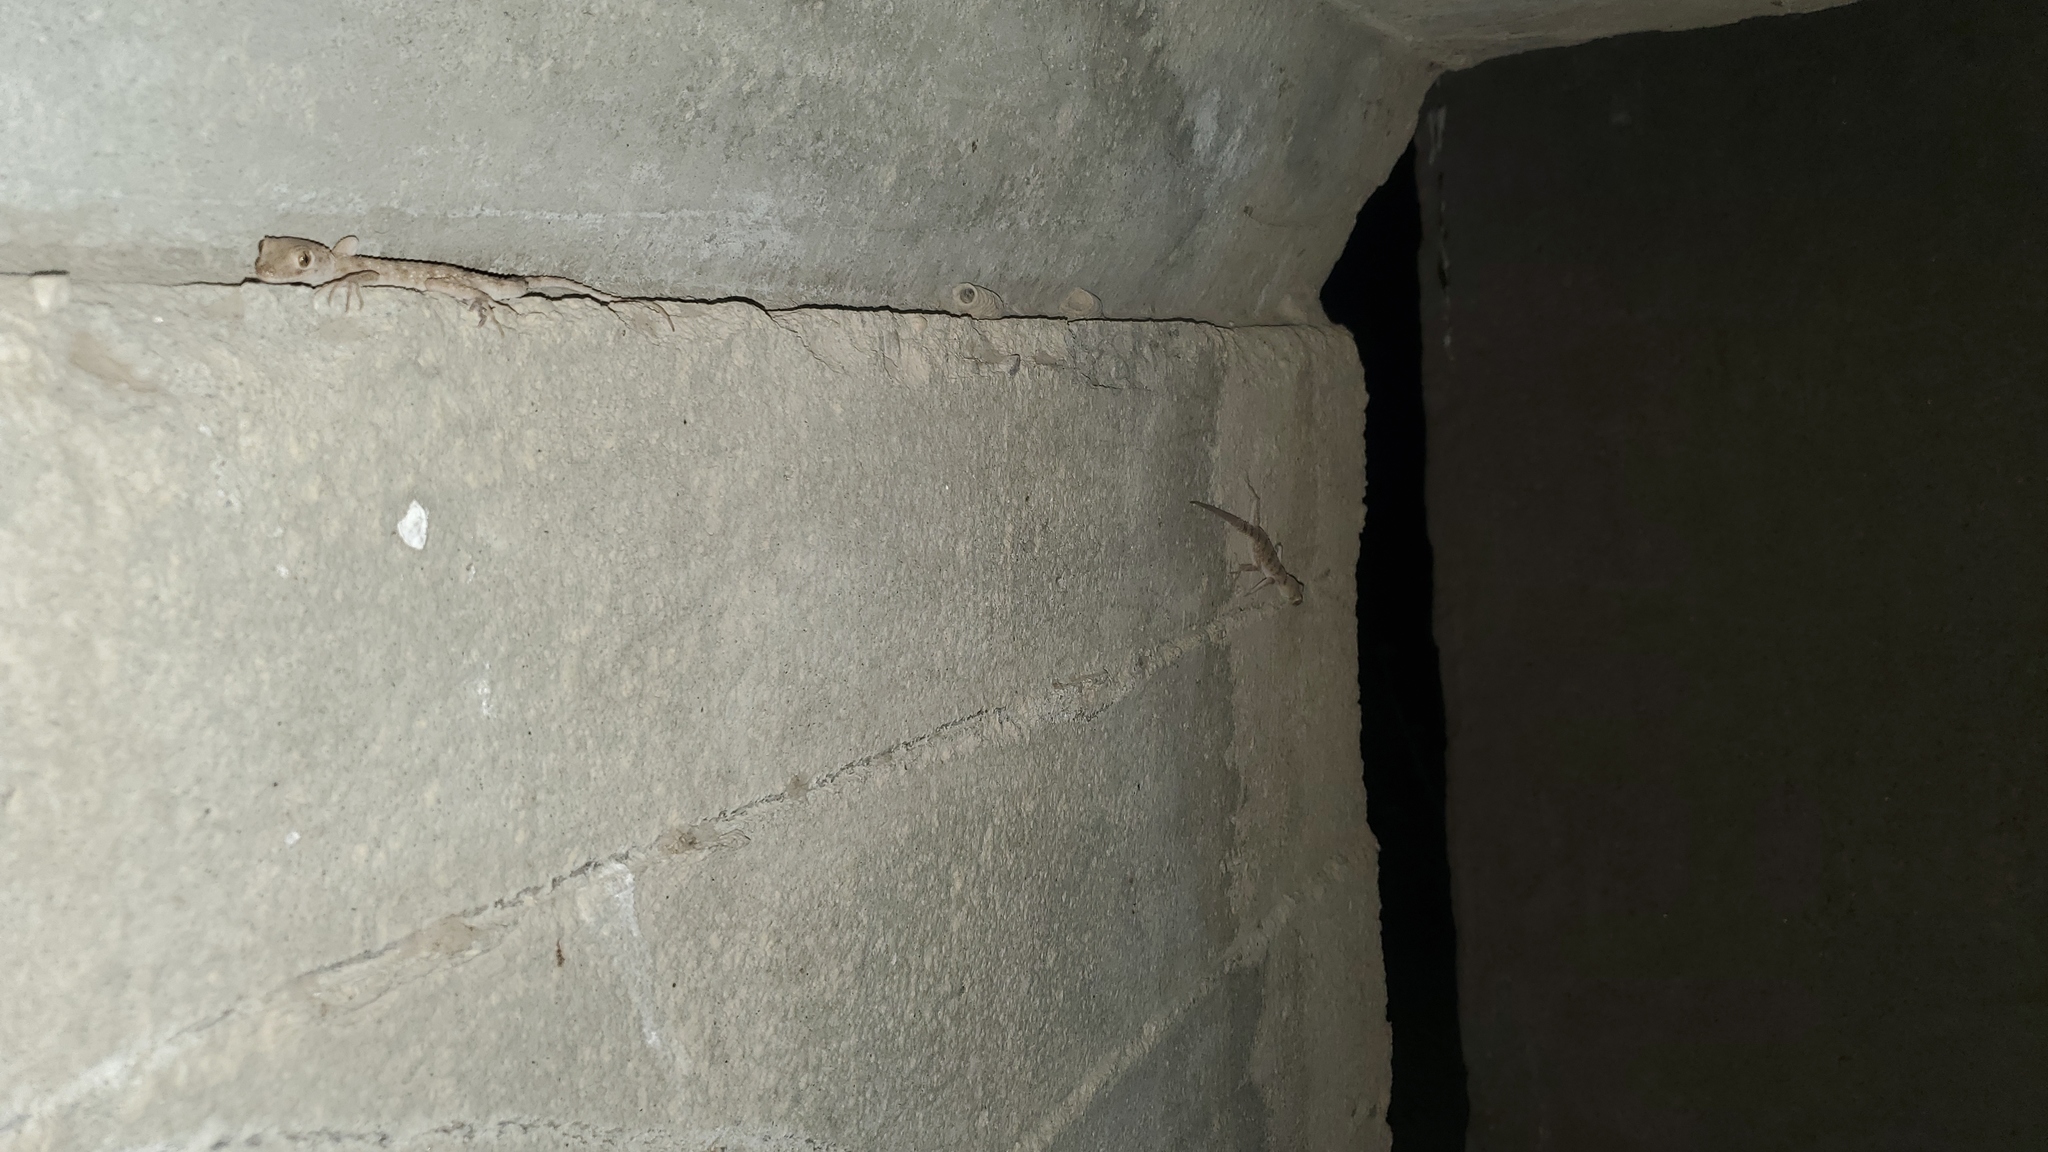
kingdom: Animalia
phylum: Chordata
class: Squamata
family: Gekkonidae
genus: Tenuidactylus
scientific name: Tenuidactylus turcmenicus
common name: Turkmenian thin-toed gecko
